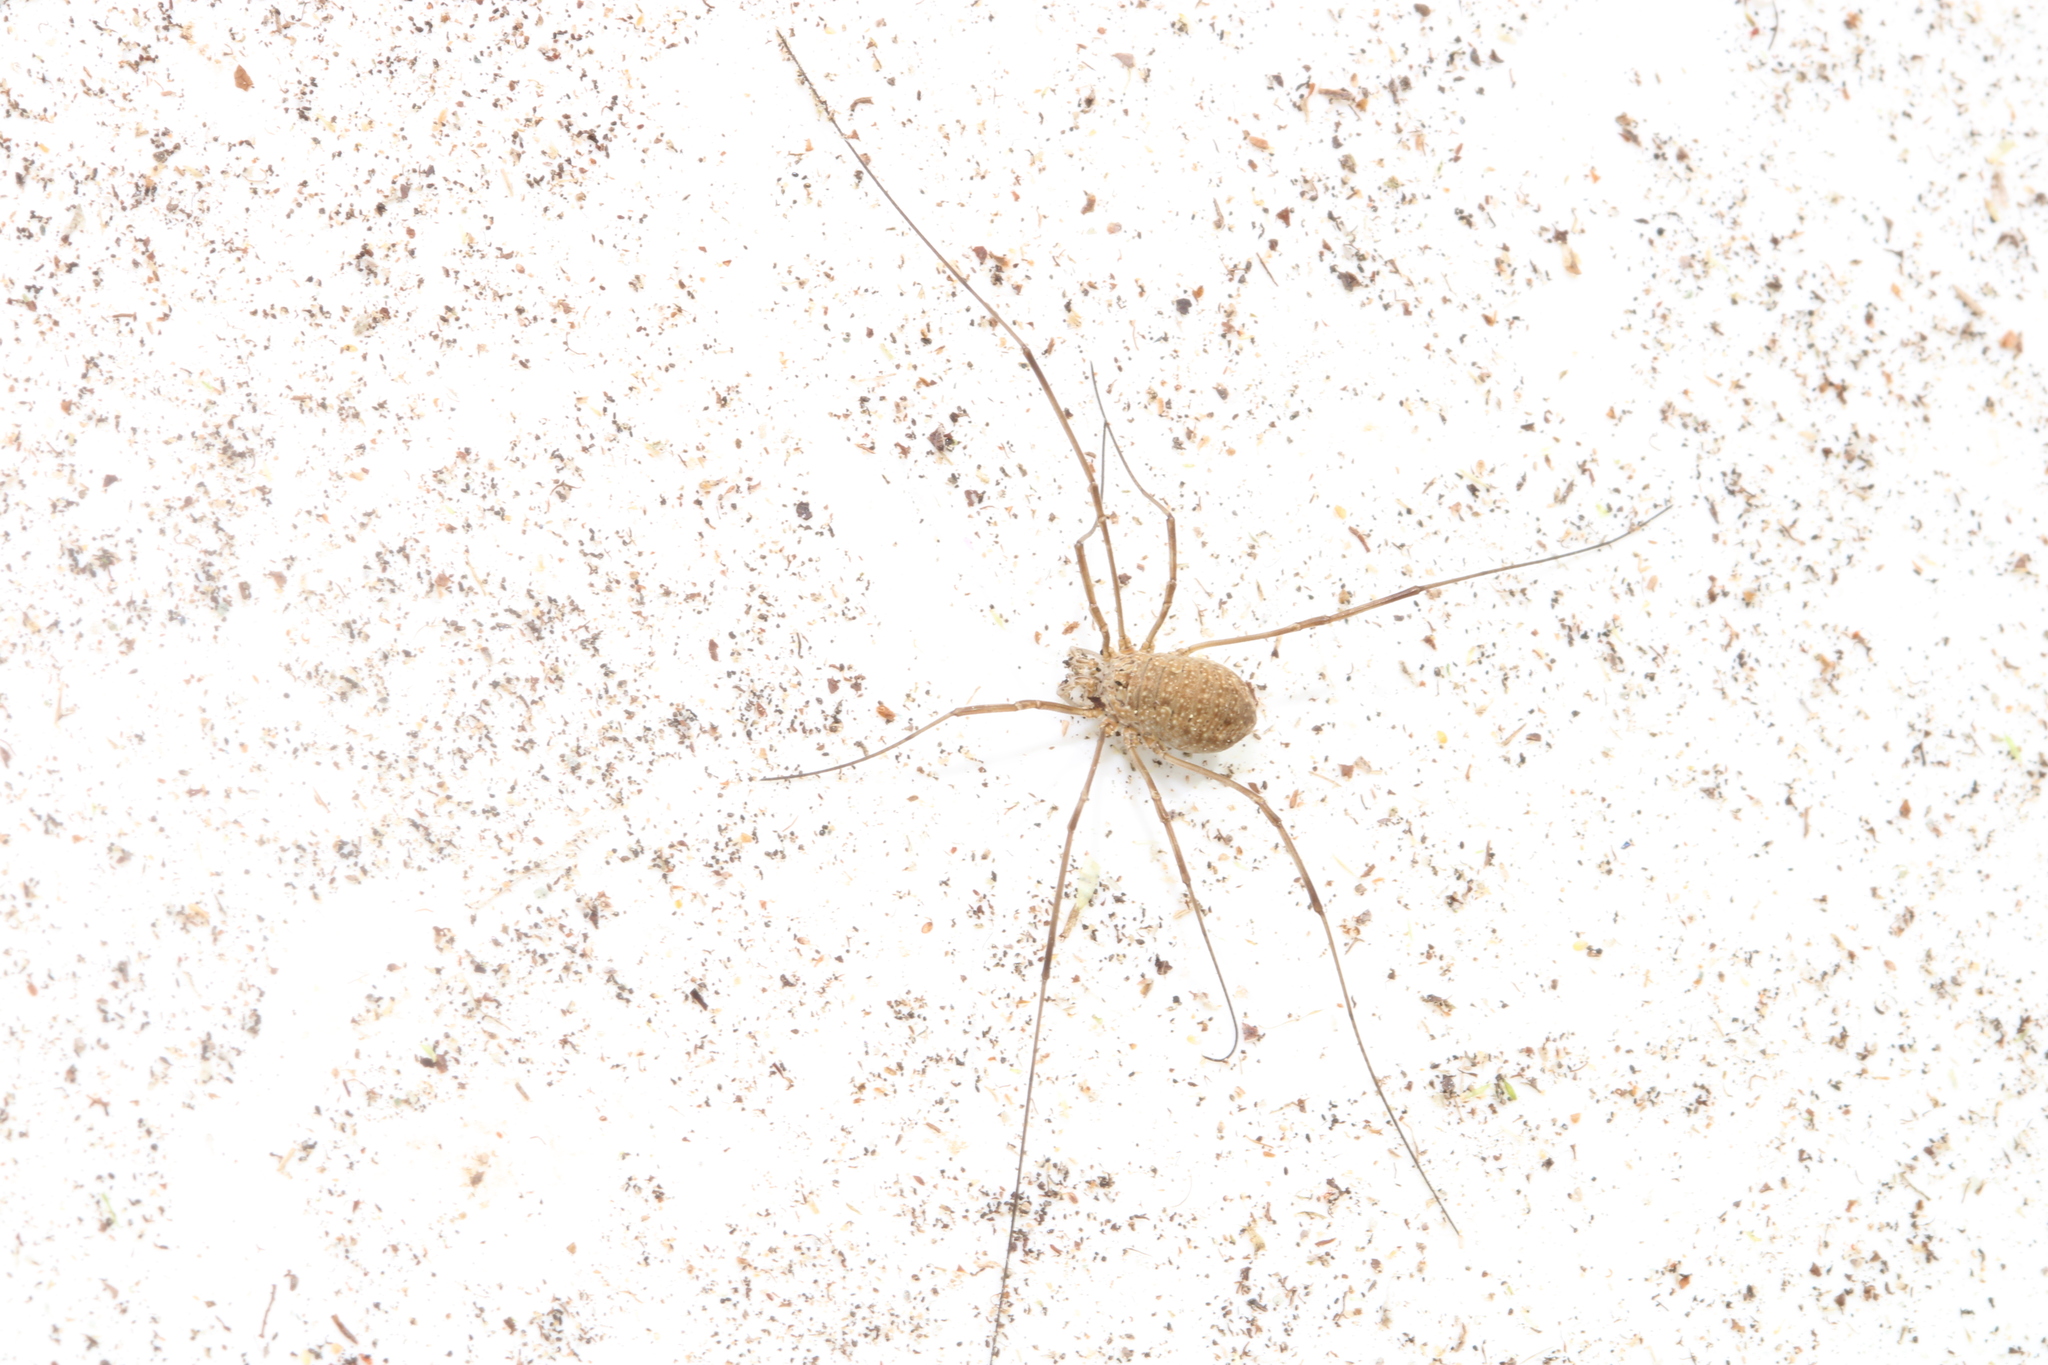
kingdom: Animalia
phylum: Arthropoda
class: Arachnida
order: Opiliones
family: Phalangiidae
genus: Phalangium
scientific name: Phalangium opilio
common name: Daddy longleg
